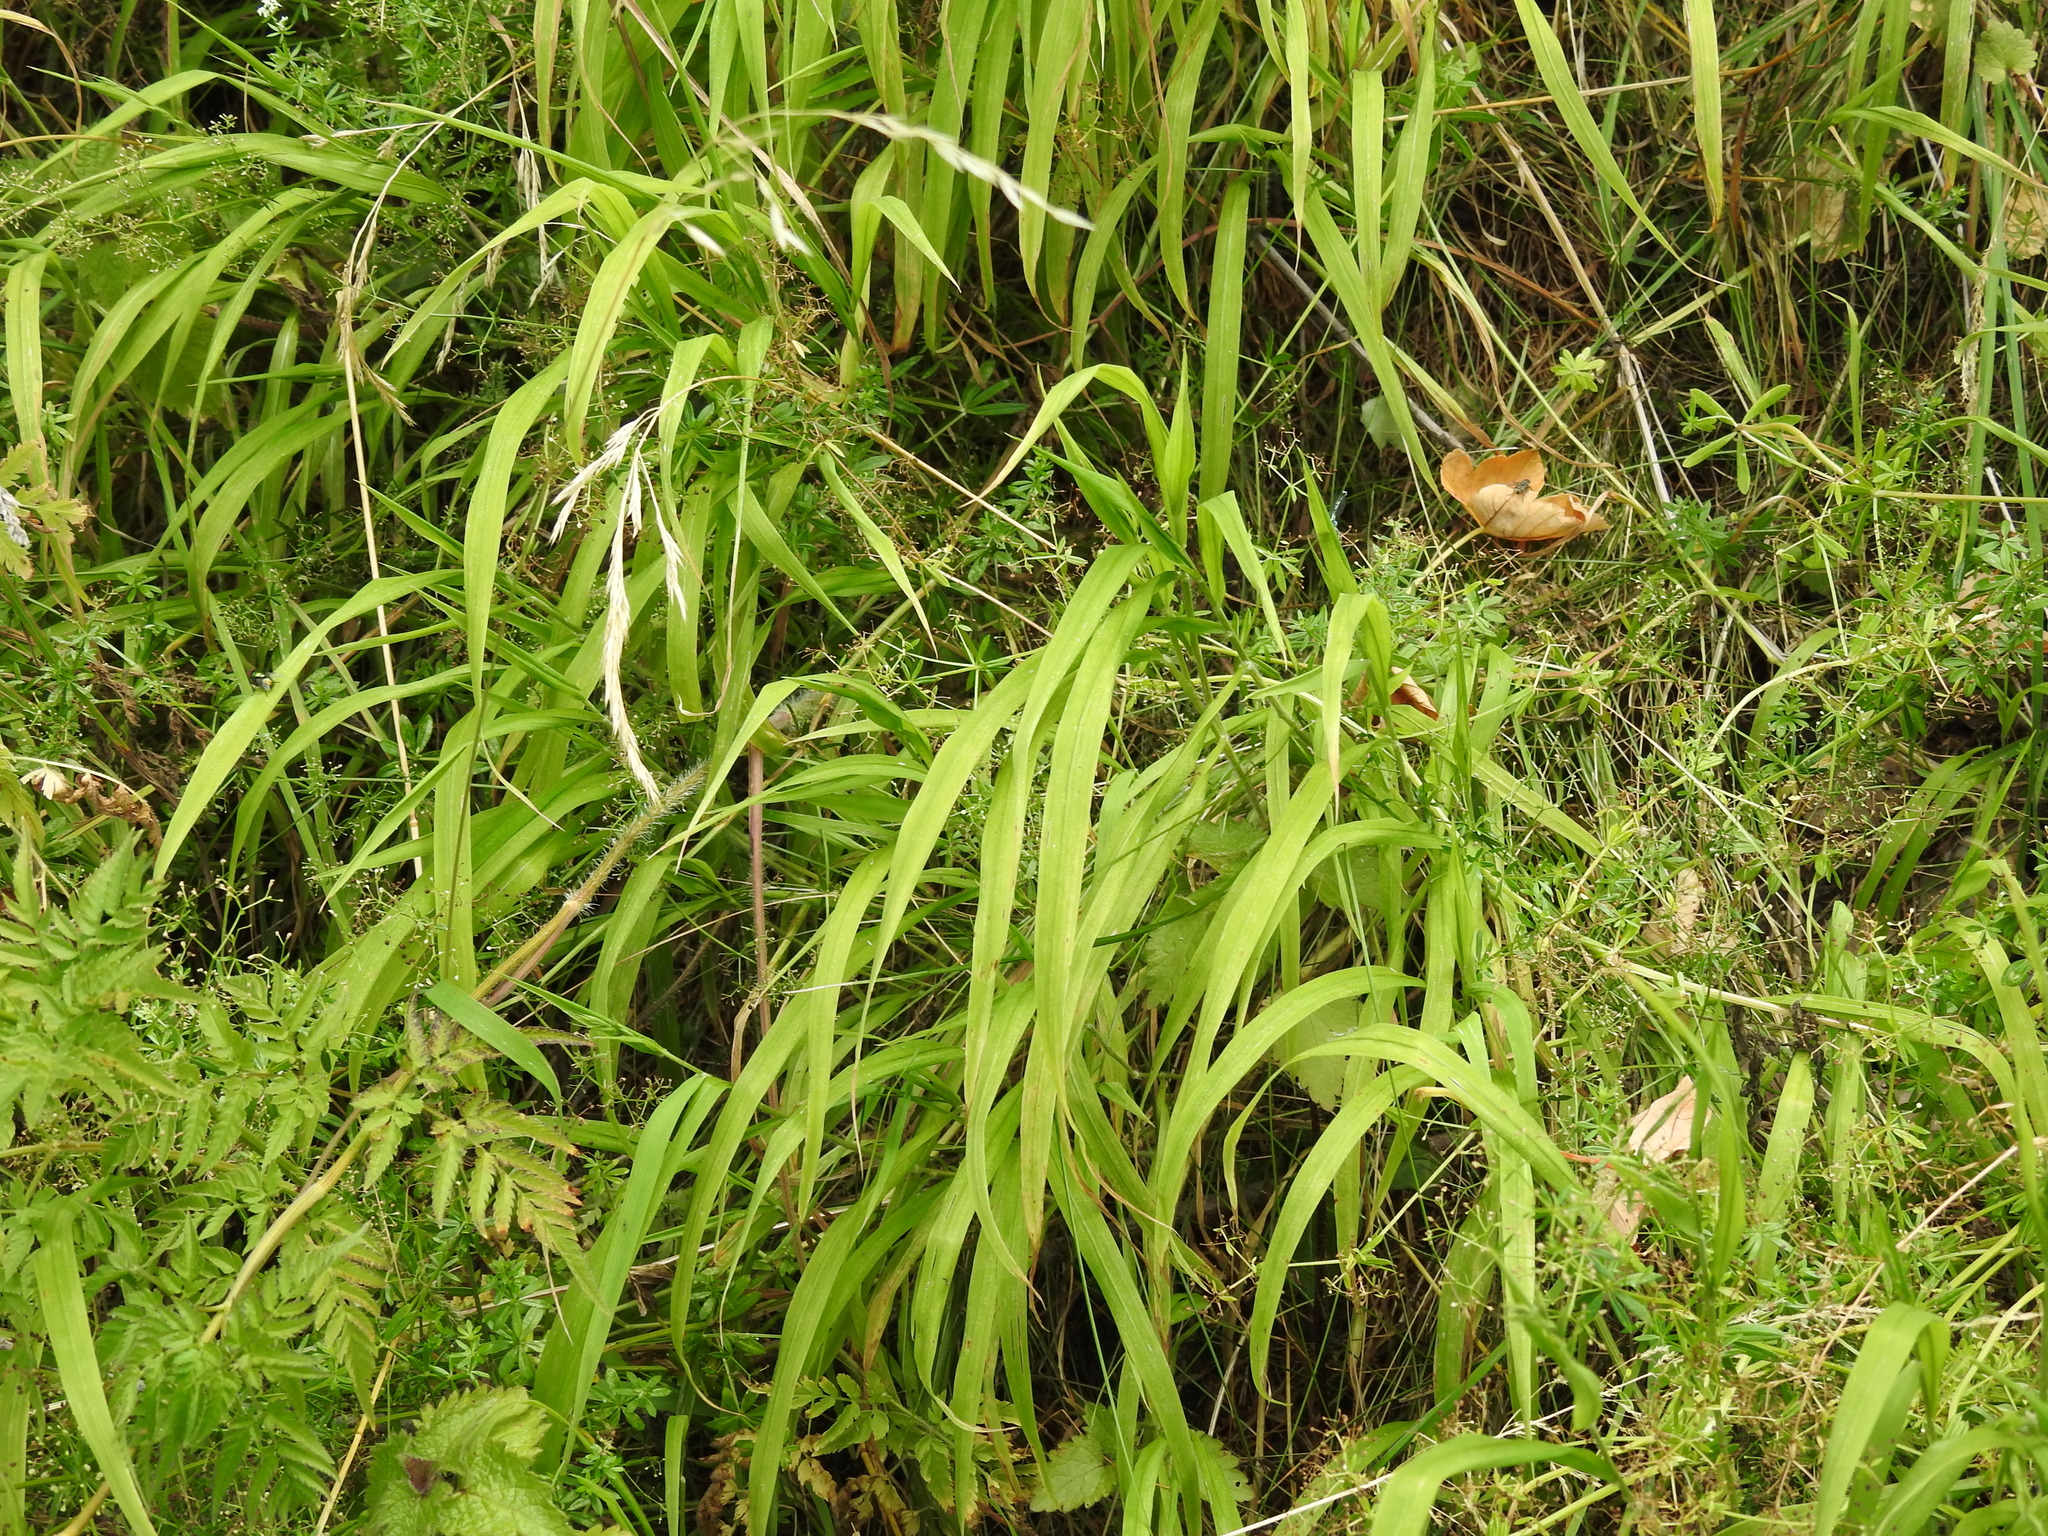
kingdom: Plantae
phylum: Tracheophyta
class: Liliopsida
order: Poales
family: Poaceae
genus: Brachypodium
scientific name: Brachypodium sylvaticum
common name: False-brome
